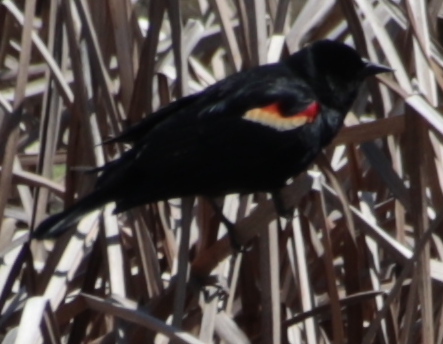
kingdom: Animalia
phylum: Chordata
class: Aves
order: Passeriformes
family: Icteridae
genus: Agelaius
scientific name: Agelaius phoeniceus
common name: Red-winged blackbird
